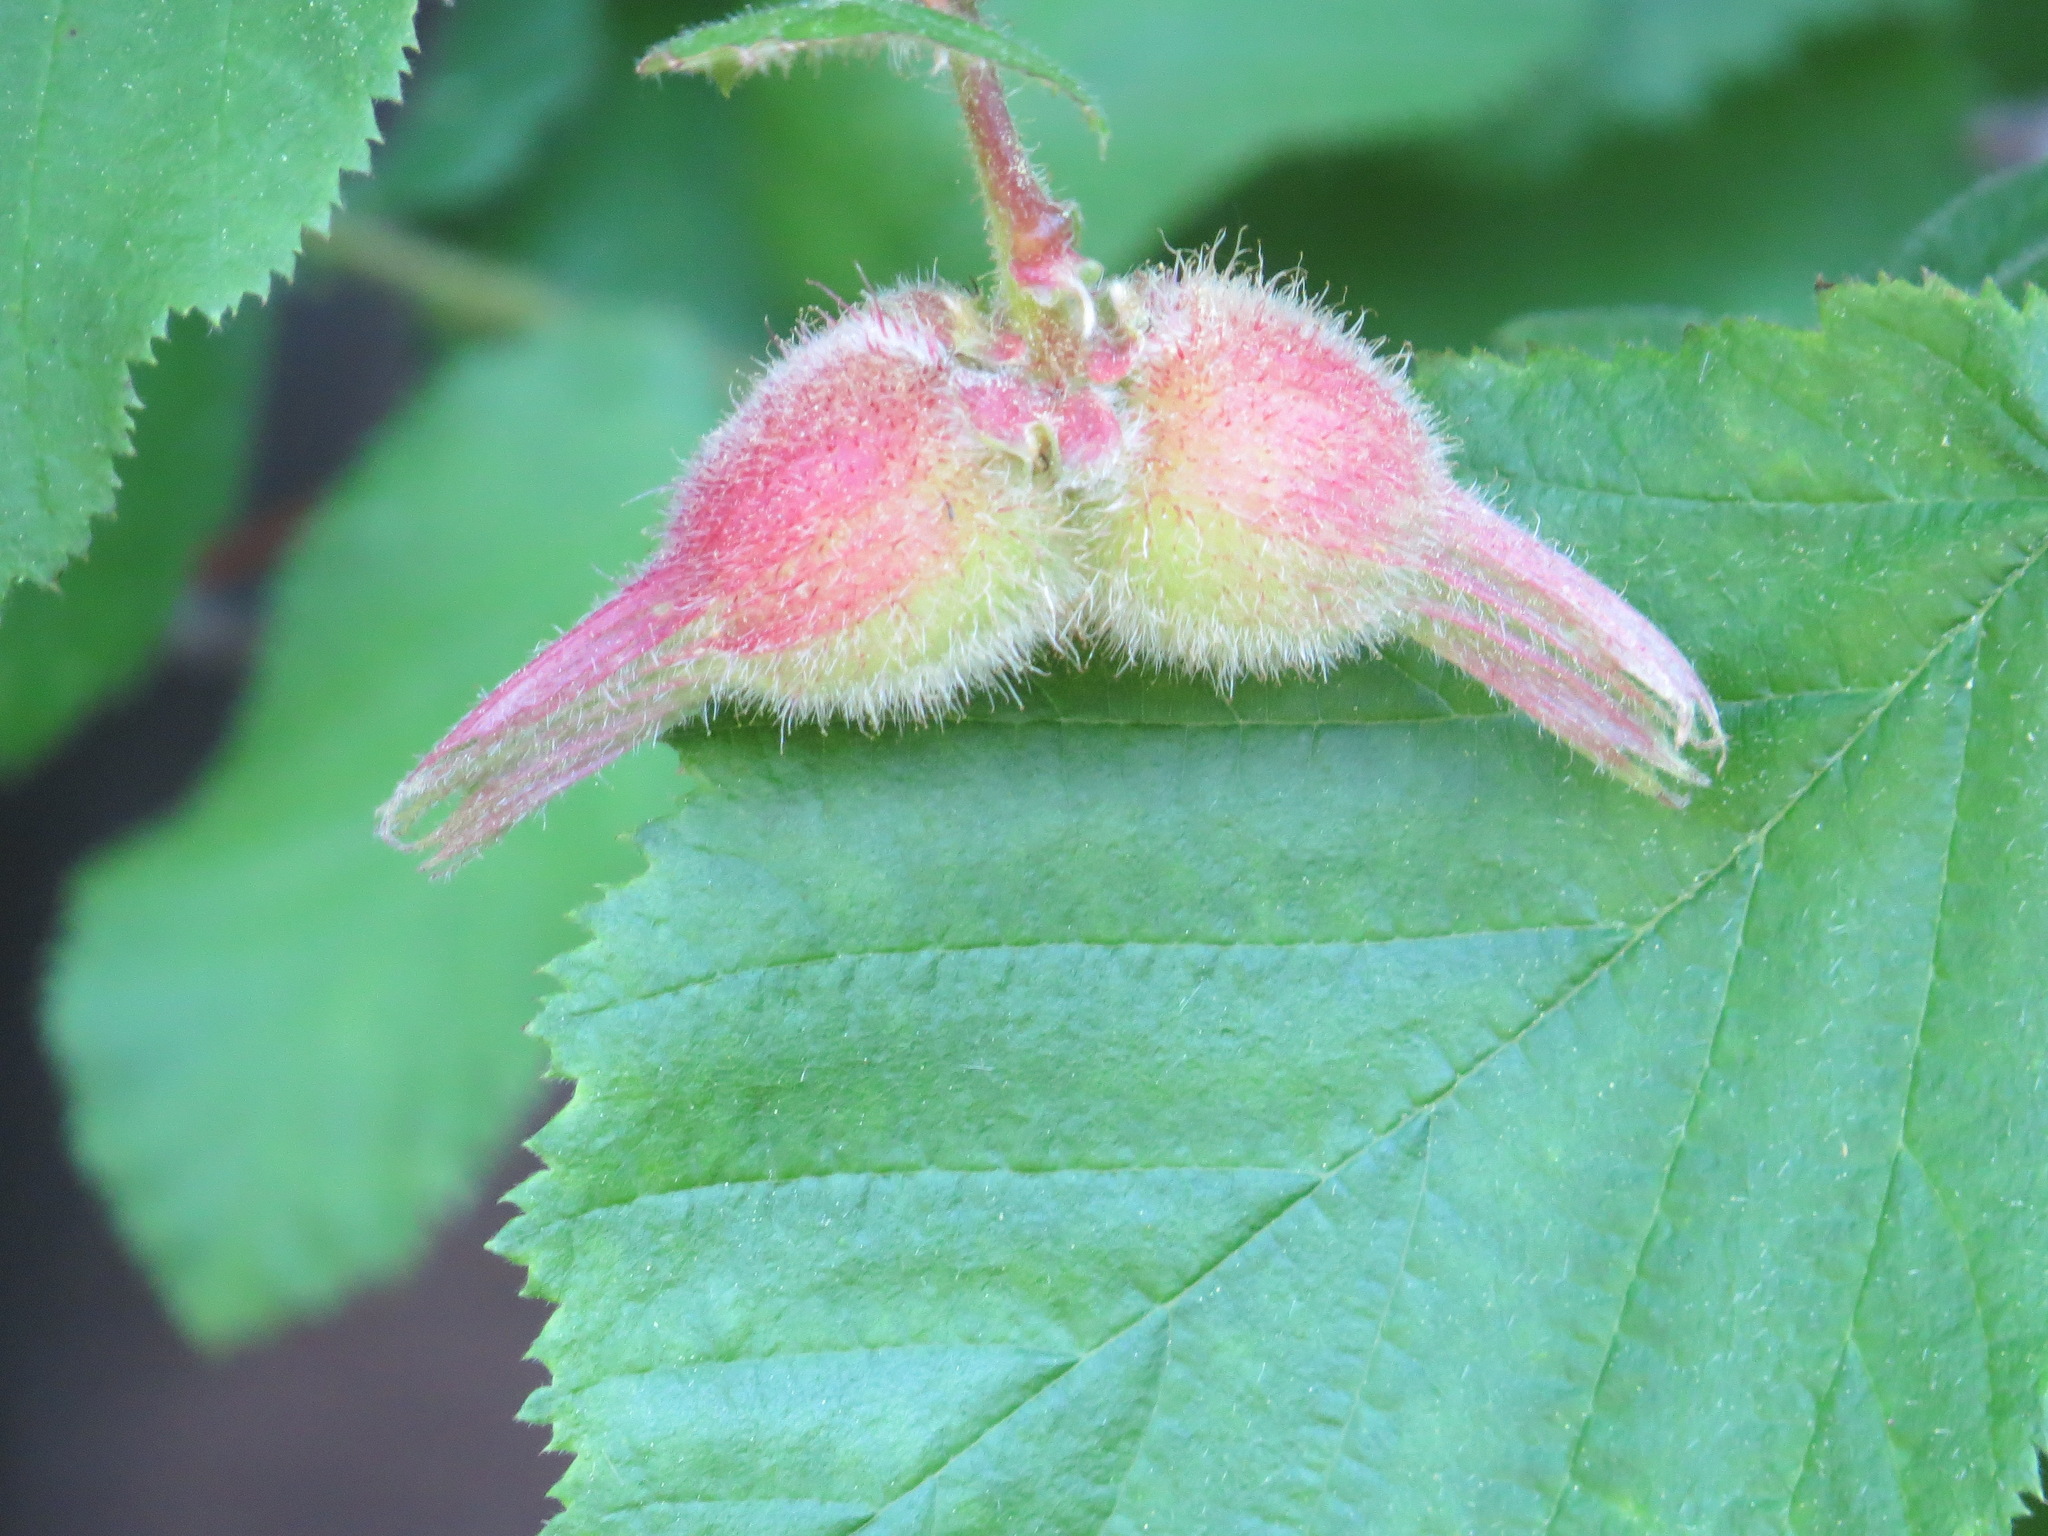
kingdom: Plantae
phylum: Tracheophyta
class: Magnoliopsida
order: Fagales
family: Betulaceae
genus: Corylus
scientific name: Corylus cornuta
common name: Beaked hazel
